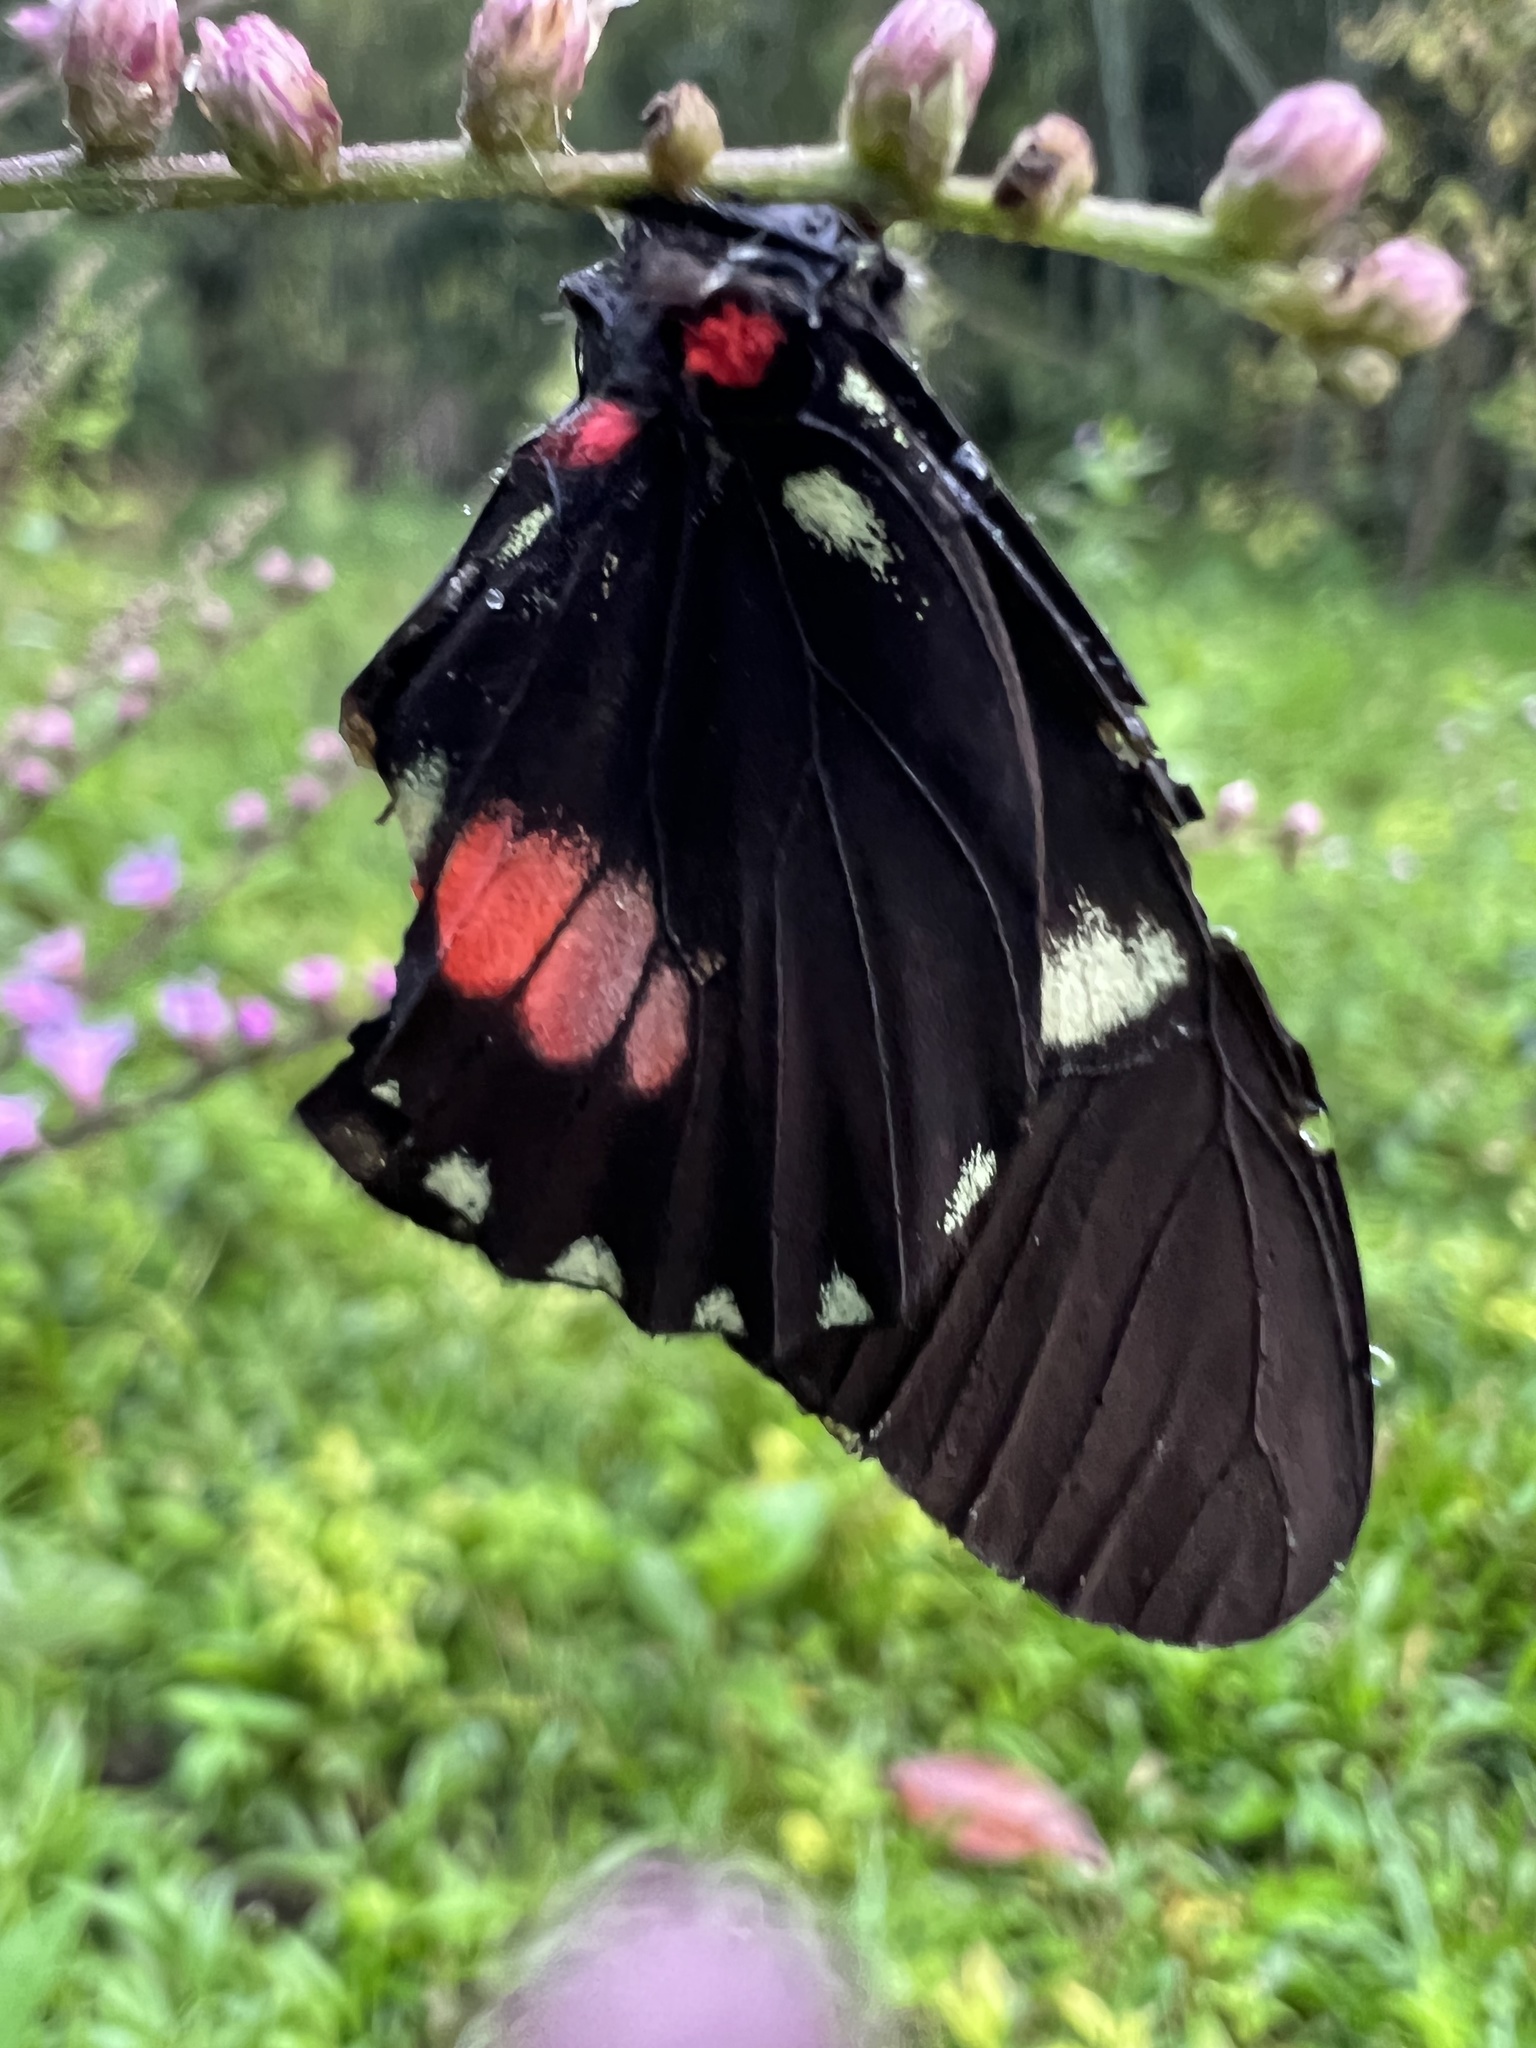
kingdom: Animalia
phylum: Arthropoda
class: Insecta
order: Lepidoptera
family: Pieridae
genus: Archonias
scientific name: Archonias brassolis
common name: Cattleheart white
